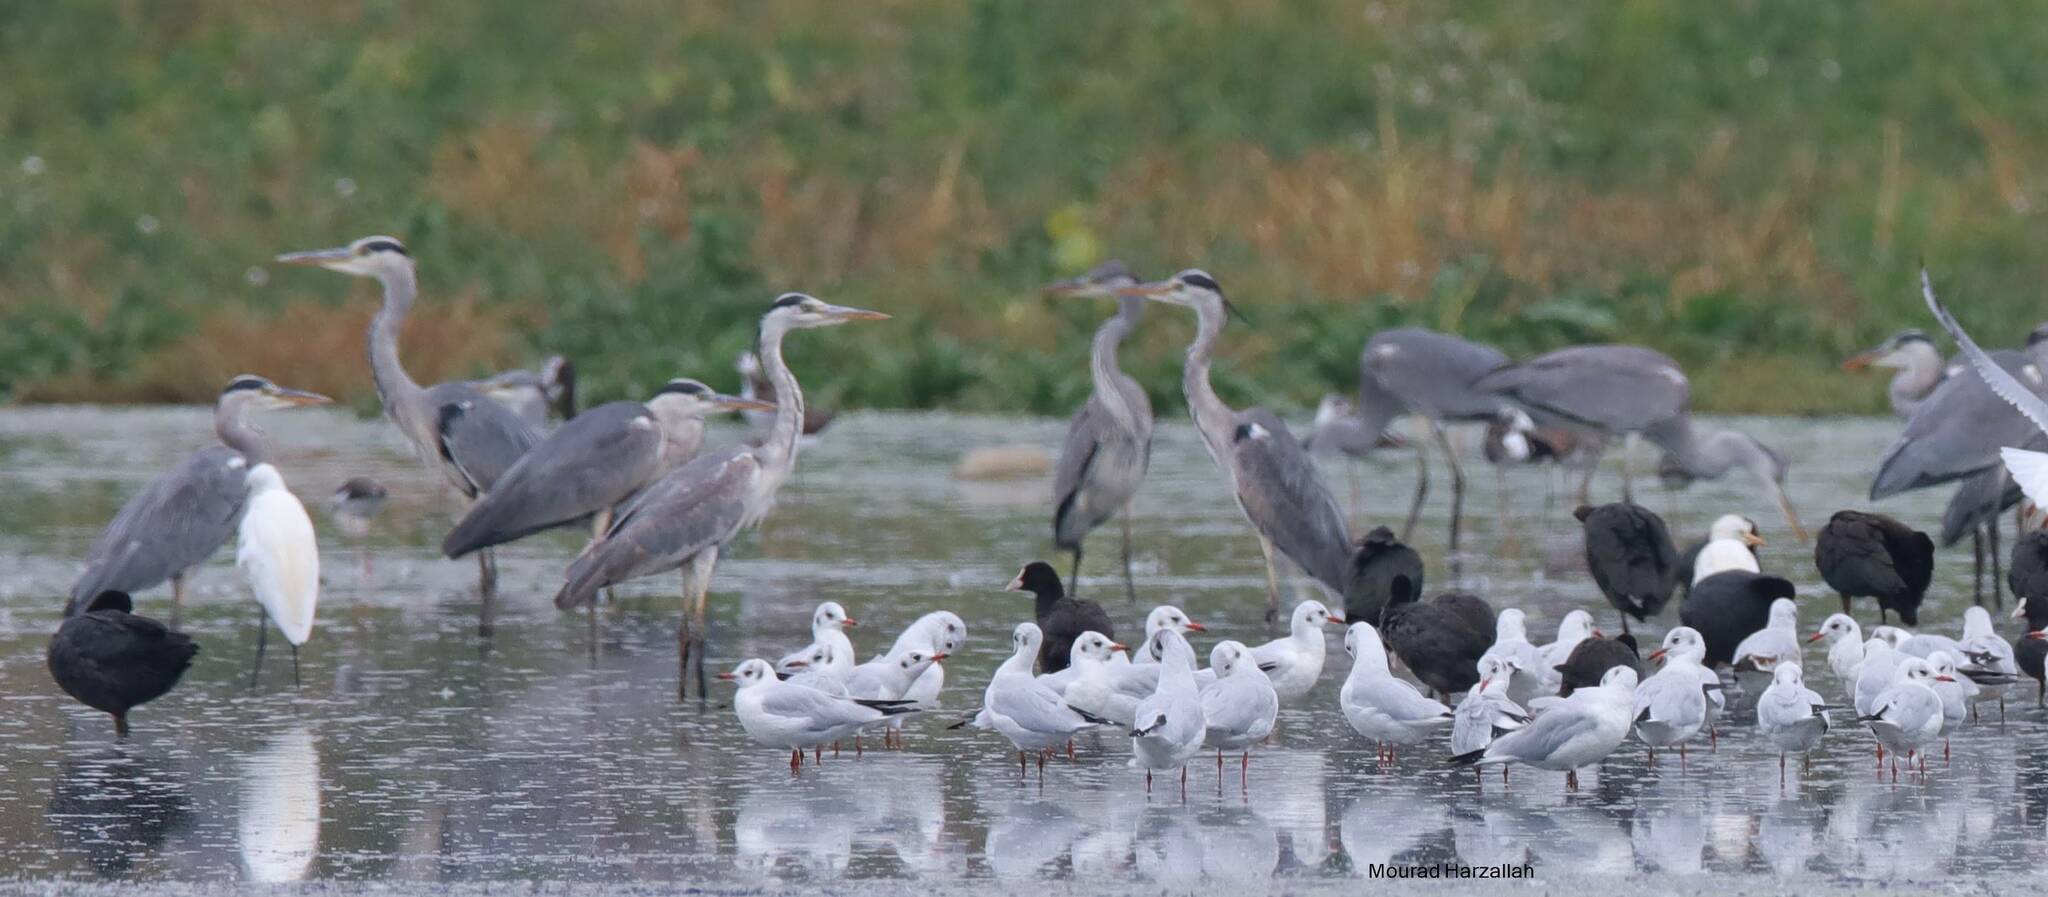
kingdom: Animalia
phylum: Chordata
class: Aves
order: Pelecaniformes
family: Ardeidae
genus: Ardea
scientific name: Ardea cinerea
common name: Grey heron
